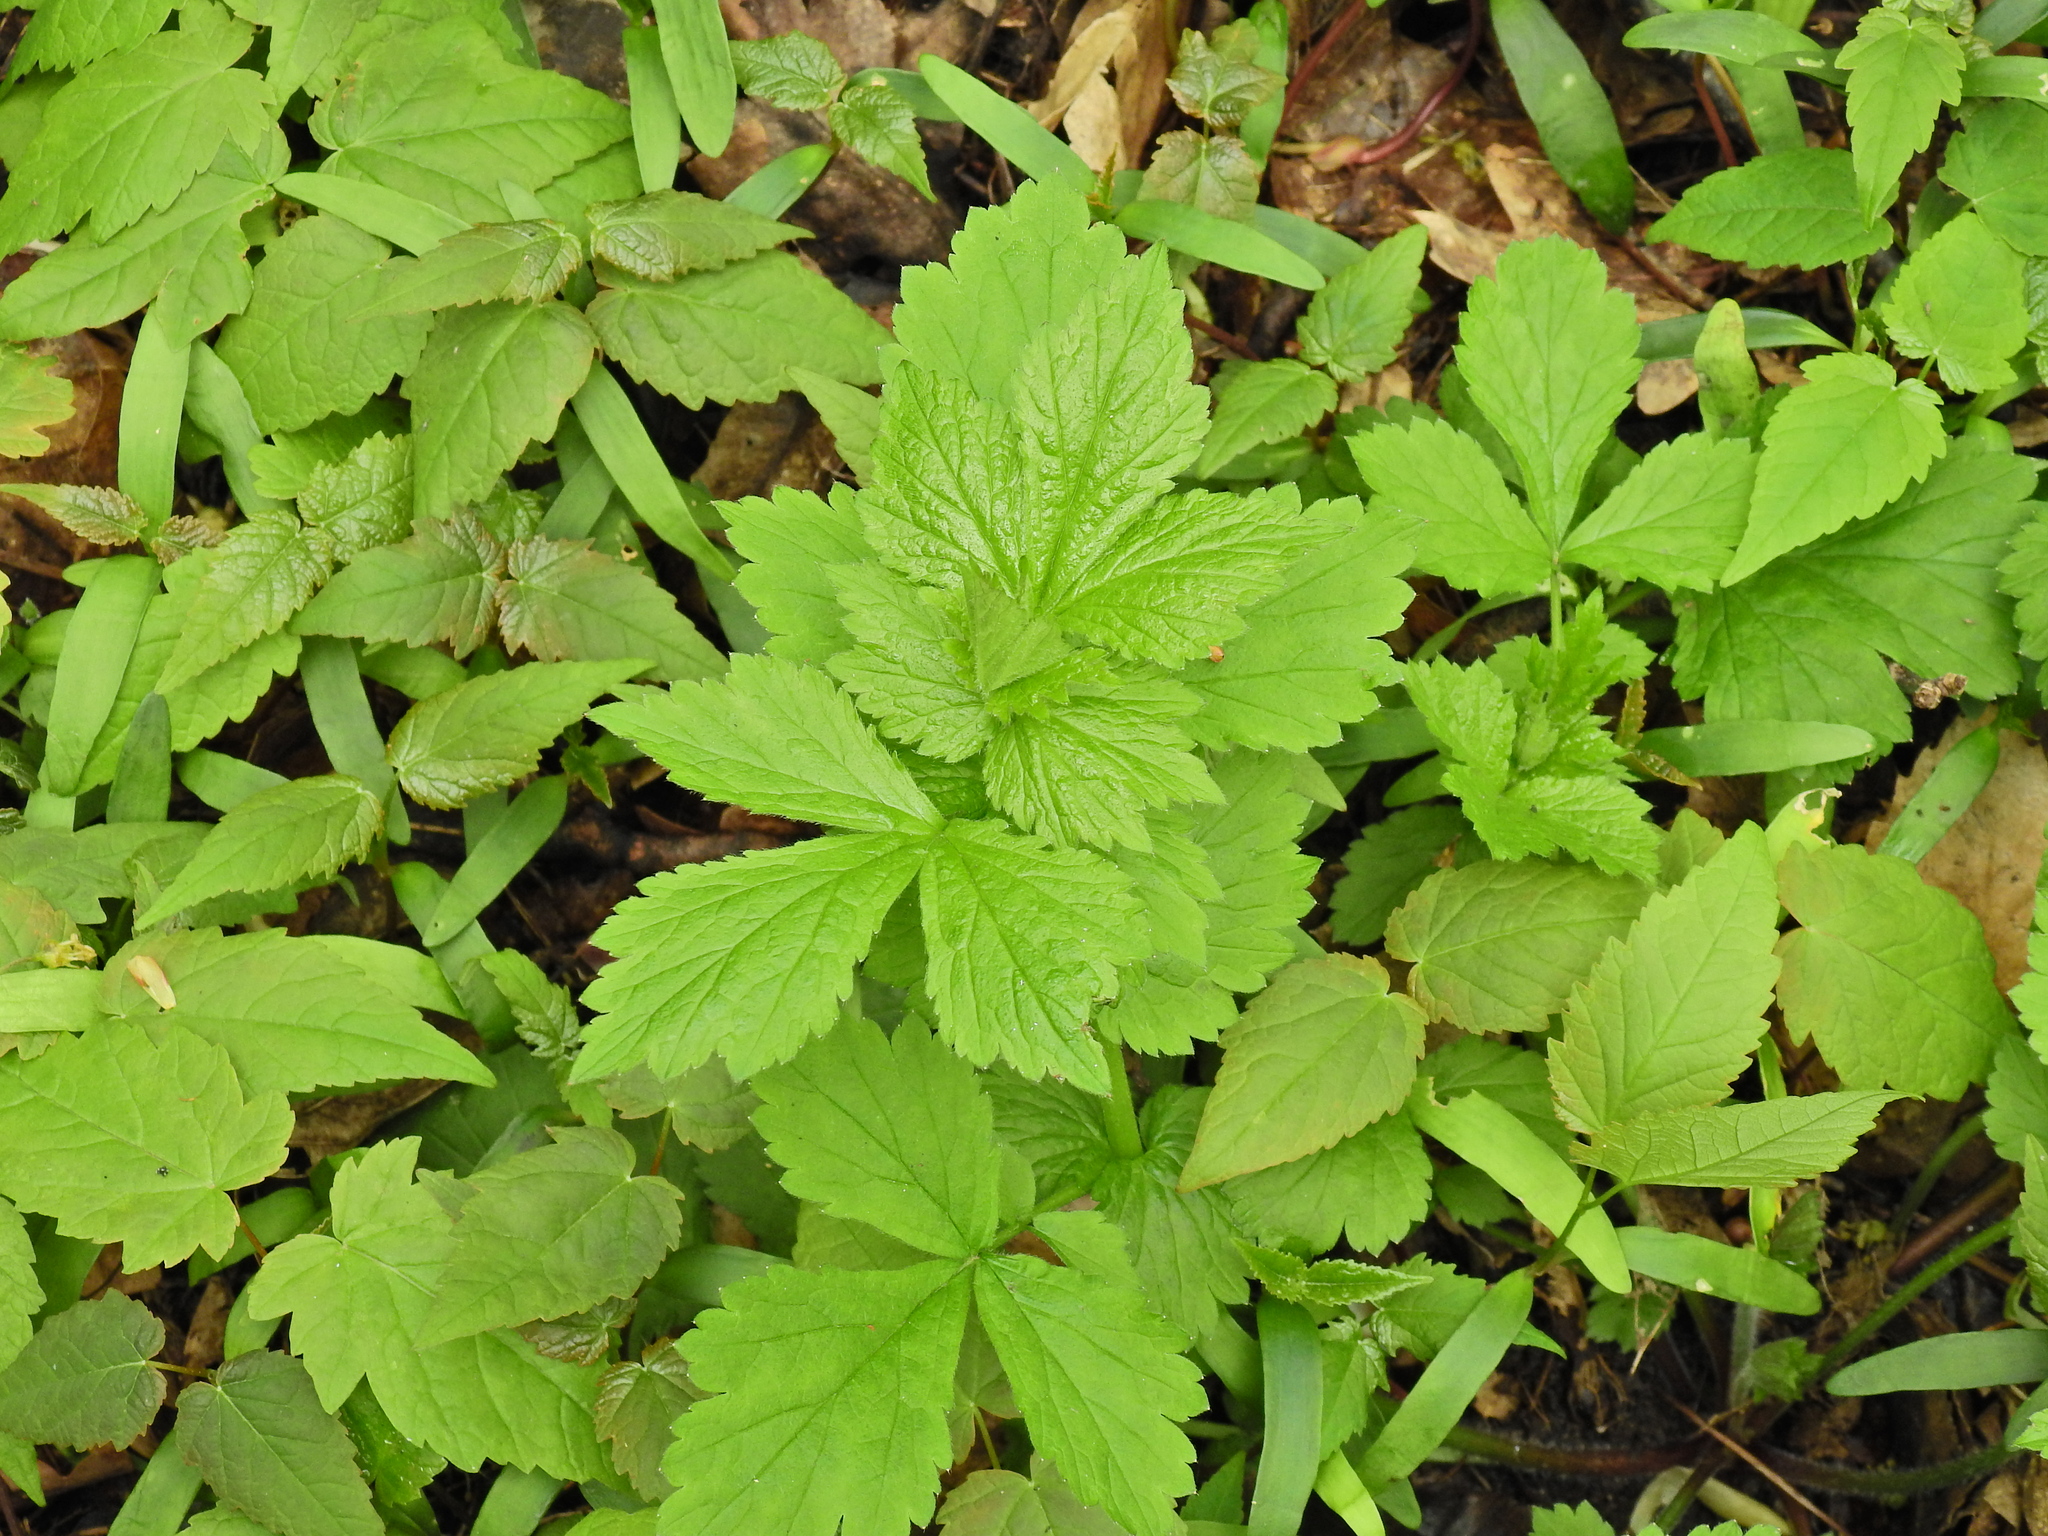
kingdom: Plantae
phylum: Tracheophyta
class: Magnoliopsida
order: Rosales
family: Rosaceae
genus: Geum
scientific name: Geum urbanum
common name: Wood avens
